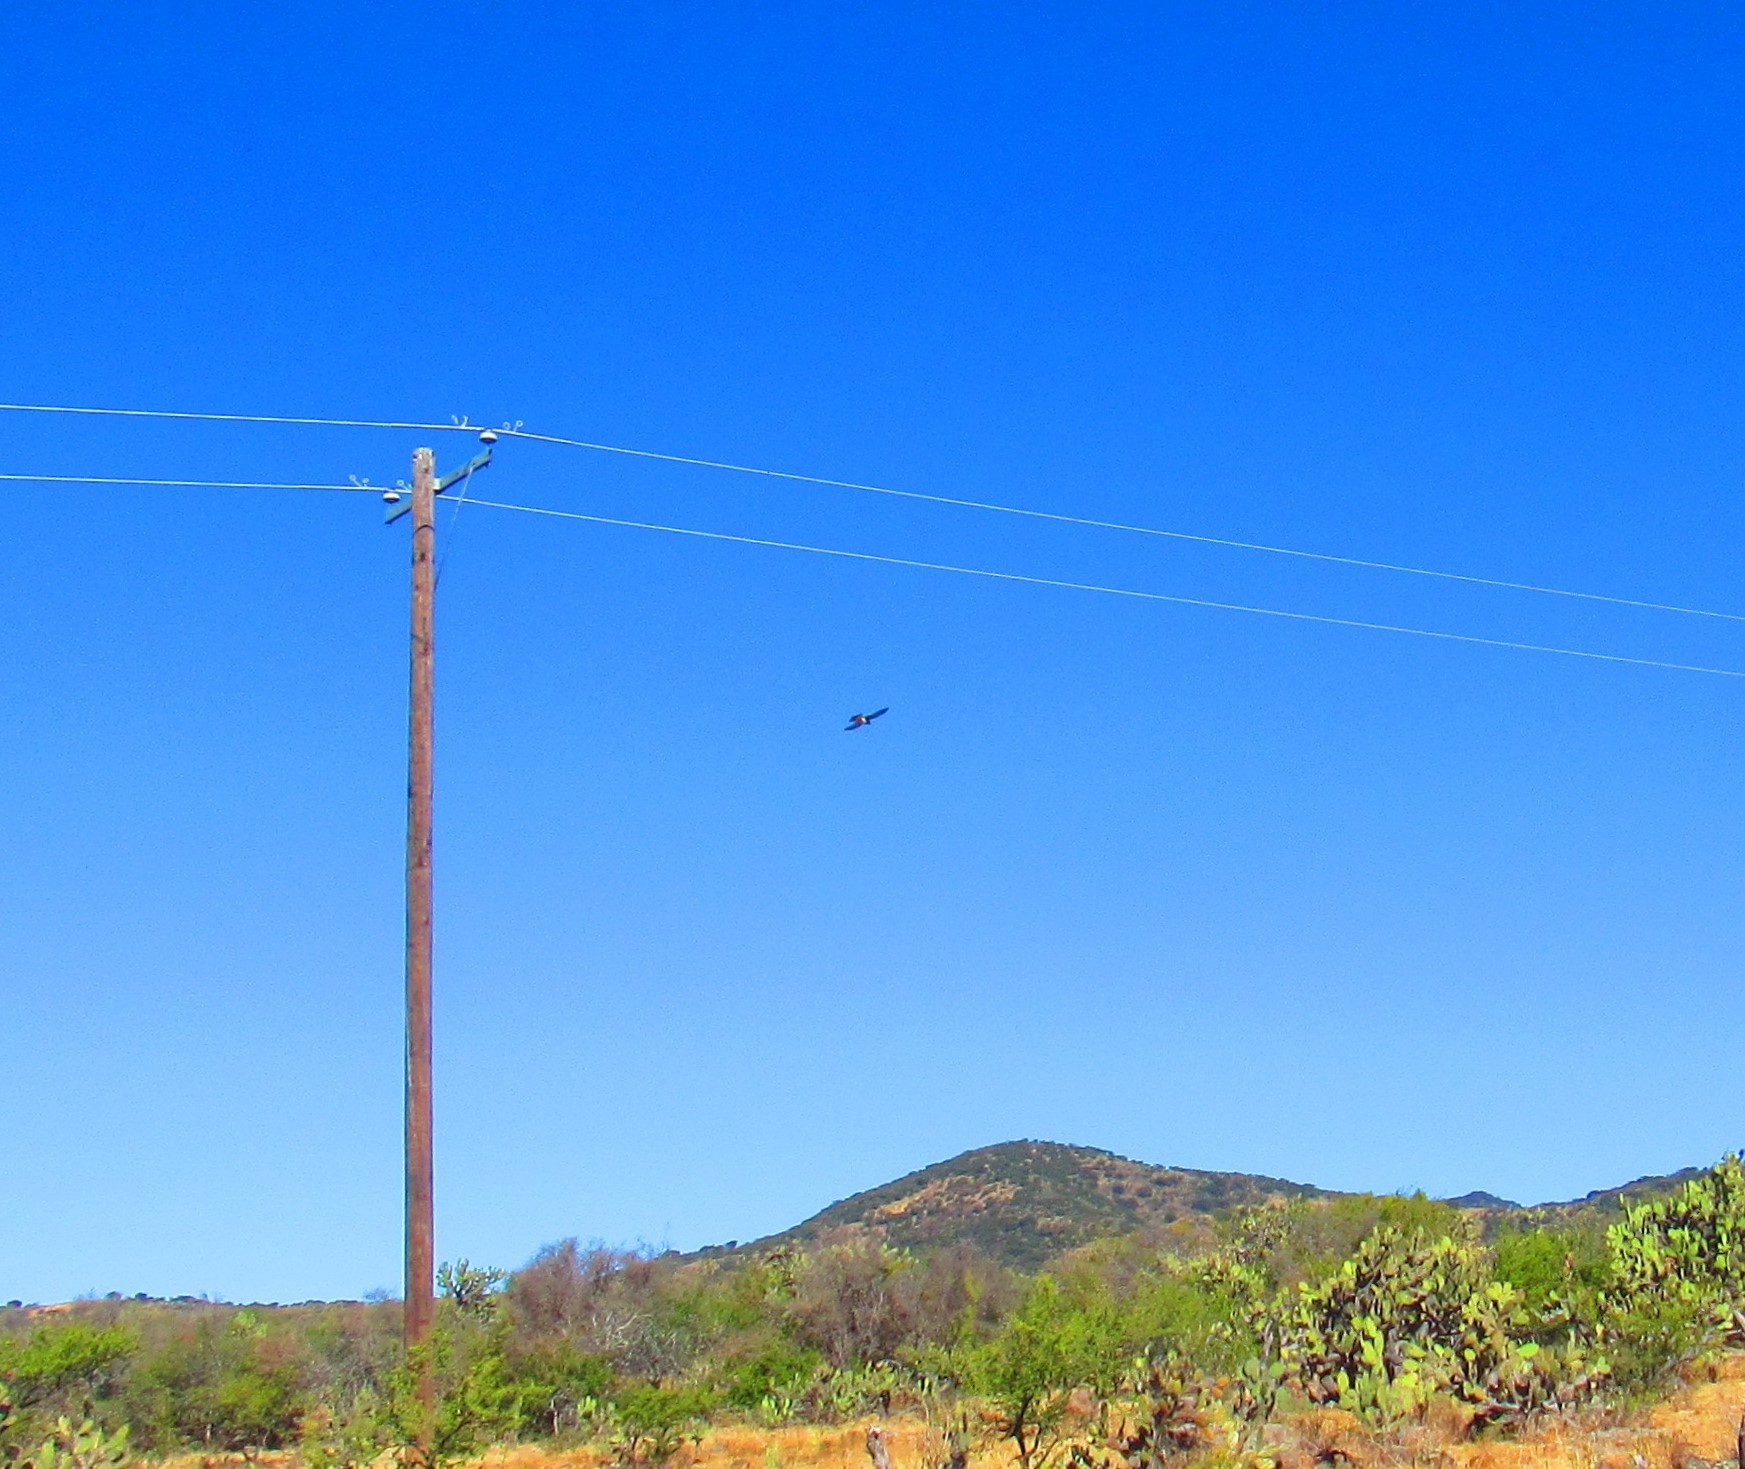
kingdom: Animalia
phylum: Chordata
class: Aves
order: Falconiformes
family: Falconidae
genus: Falco
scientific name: Falco sparverius
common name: American kestrel
